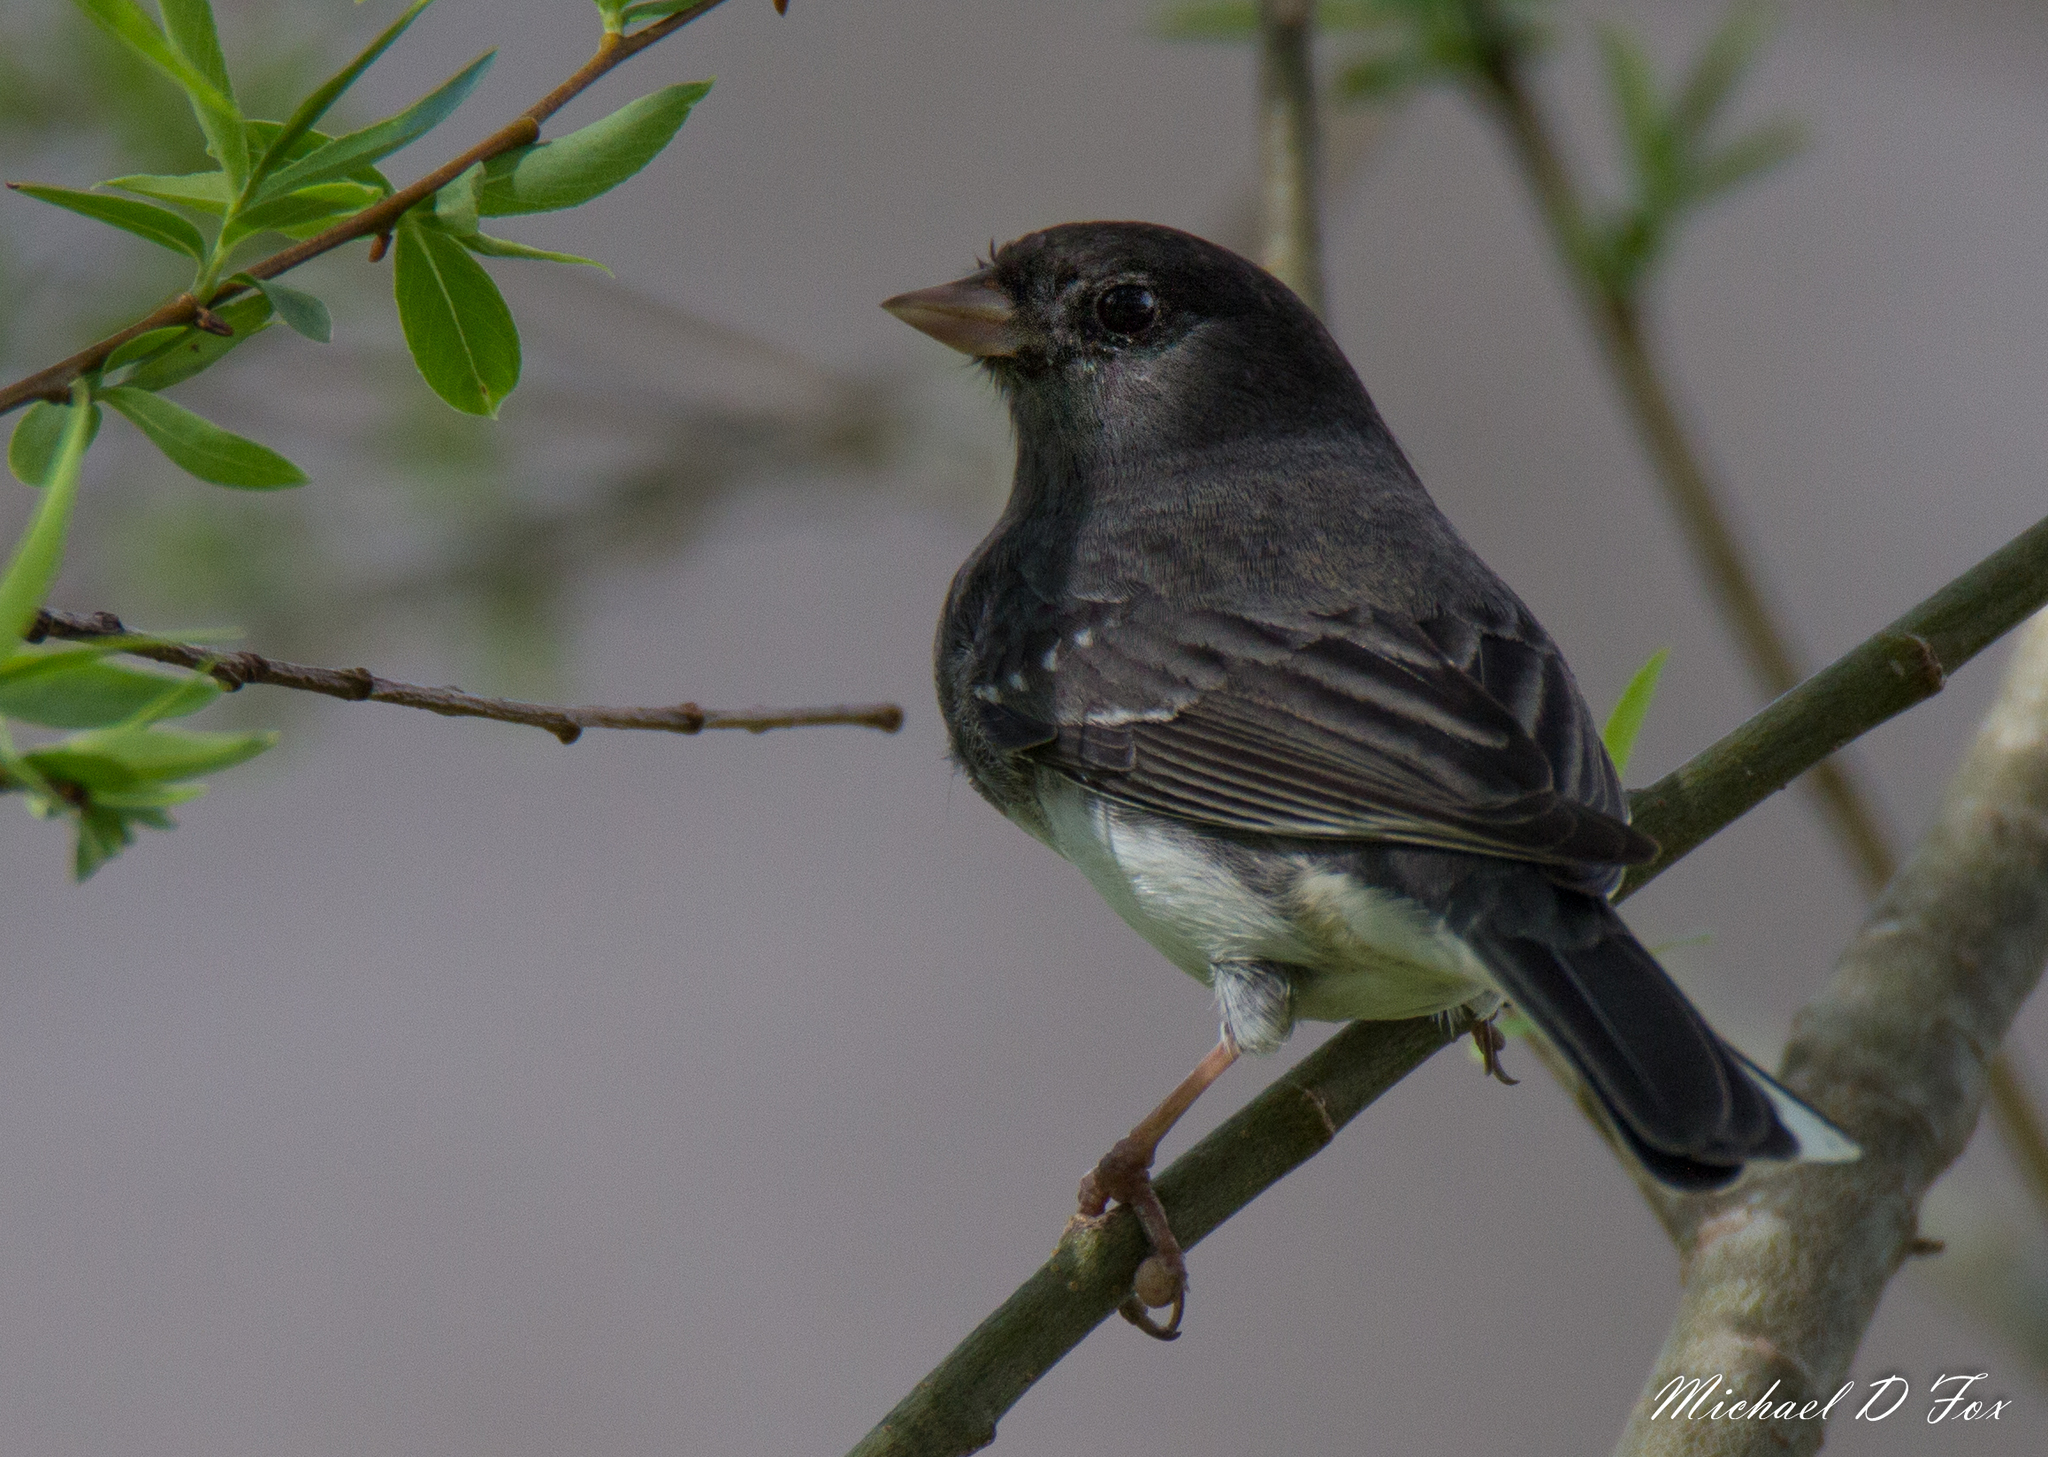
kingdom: Animalia
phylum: Chordata
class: Aves
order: Passeriformes
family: Passerellidae
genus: Junco
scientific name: Junco hyemalis
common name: Dark-eyed junco
